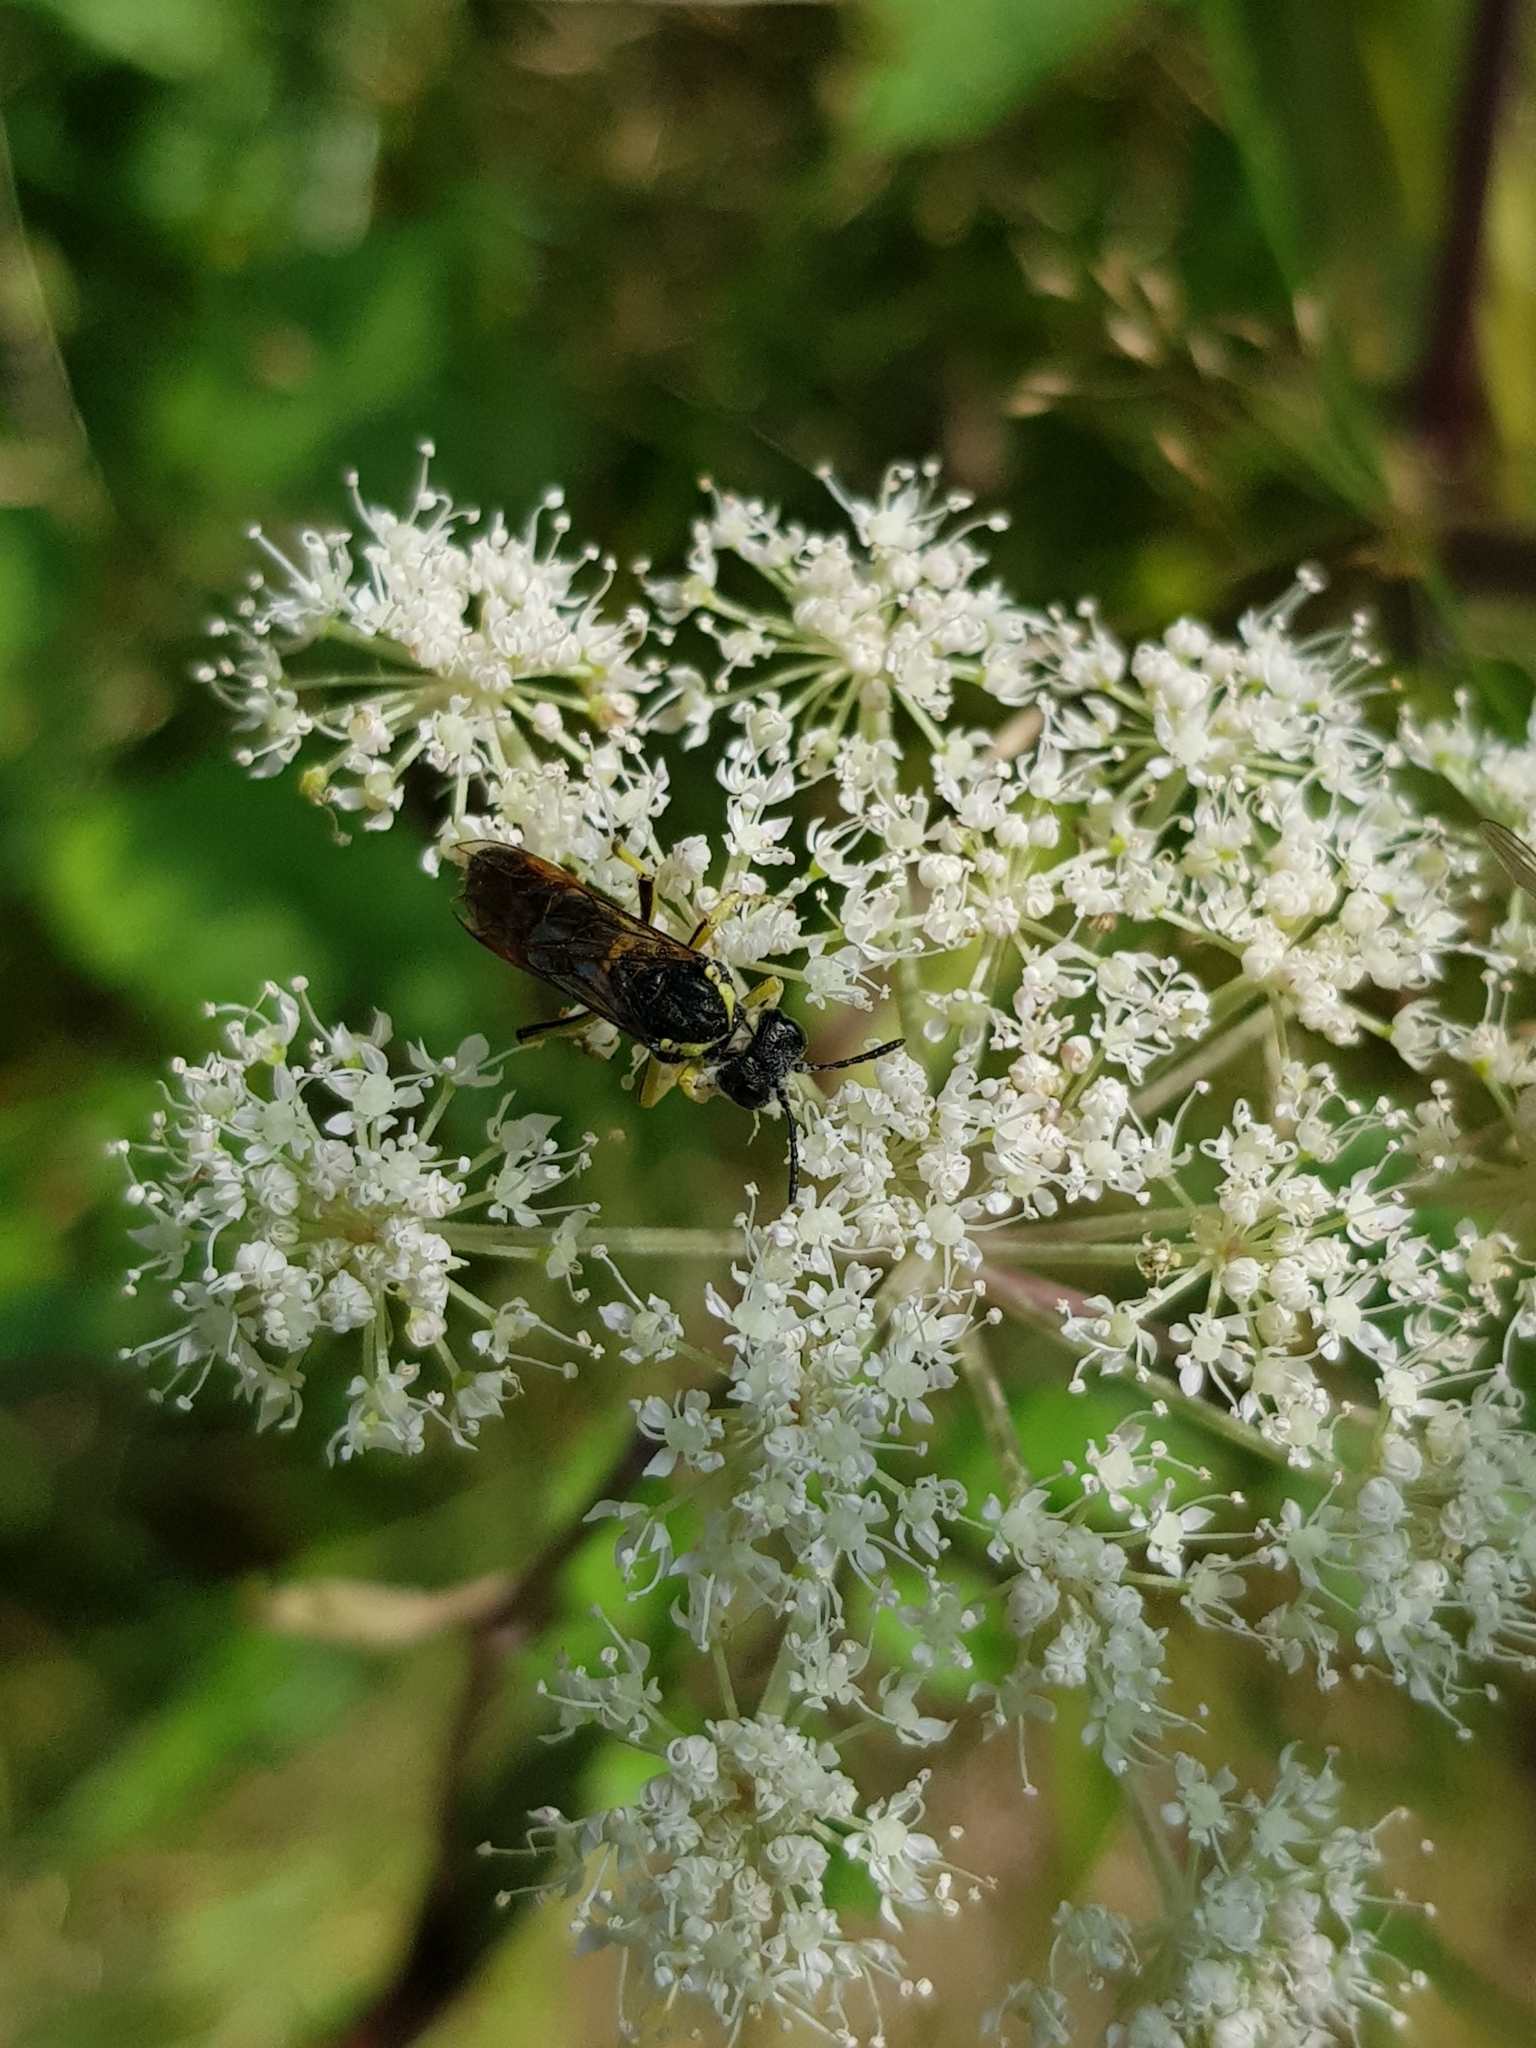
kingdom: Animalia
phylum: Arthropoda
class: Insecta
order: Hymenoptera
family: Tenthredinidae
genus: Tenthredo
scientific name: Tenthredo notha
